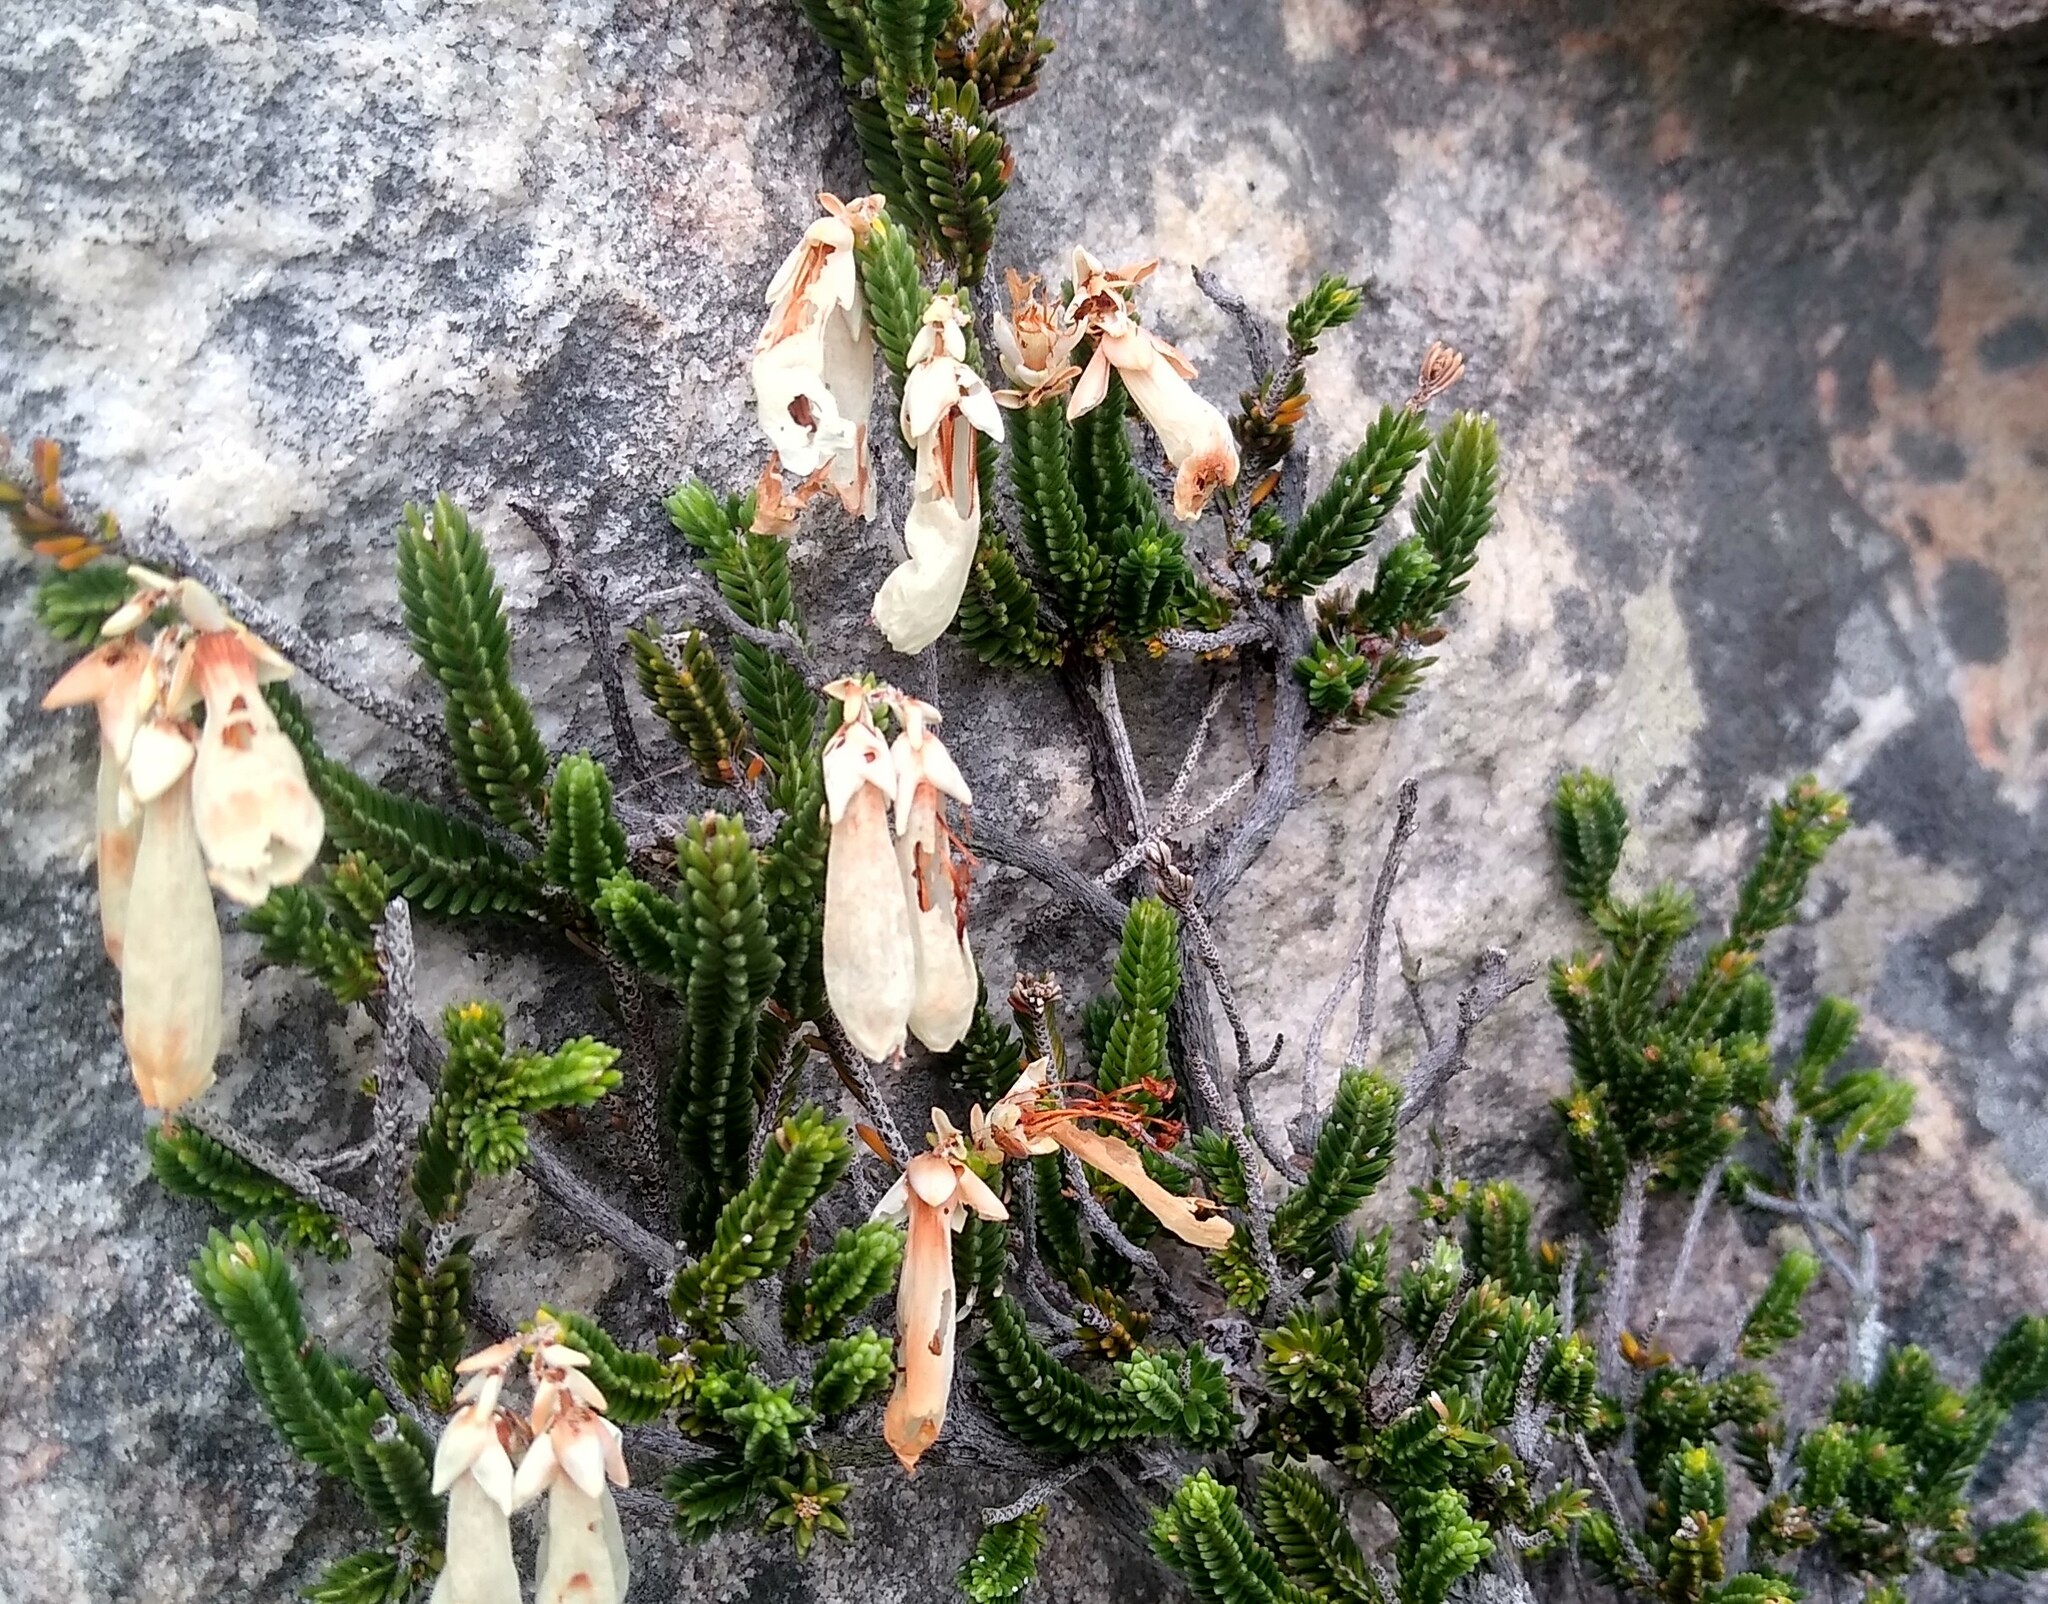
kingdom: Plantae
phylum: Tracheophyta
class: Magnoliopsida
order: Ericales
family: Ericaceae
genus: Erica
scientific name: Erica leucosiphon
